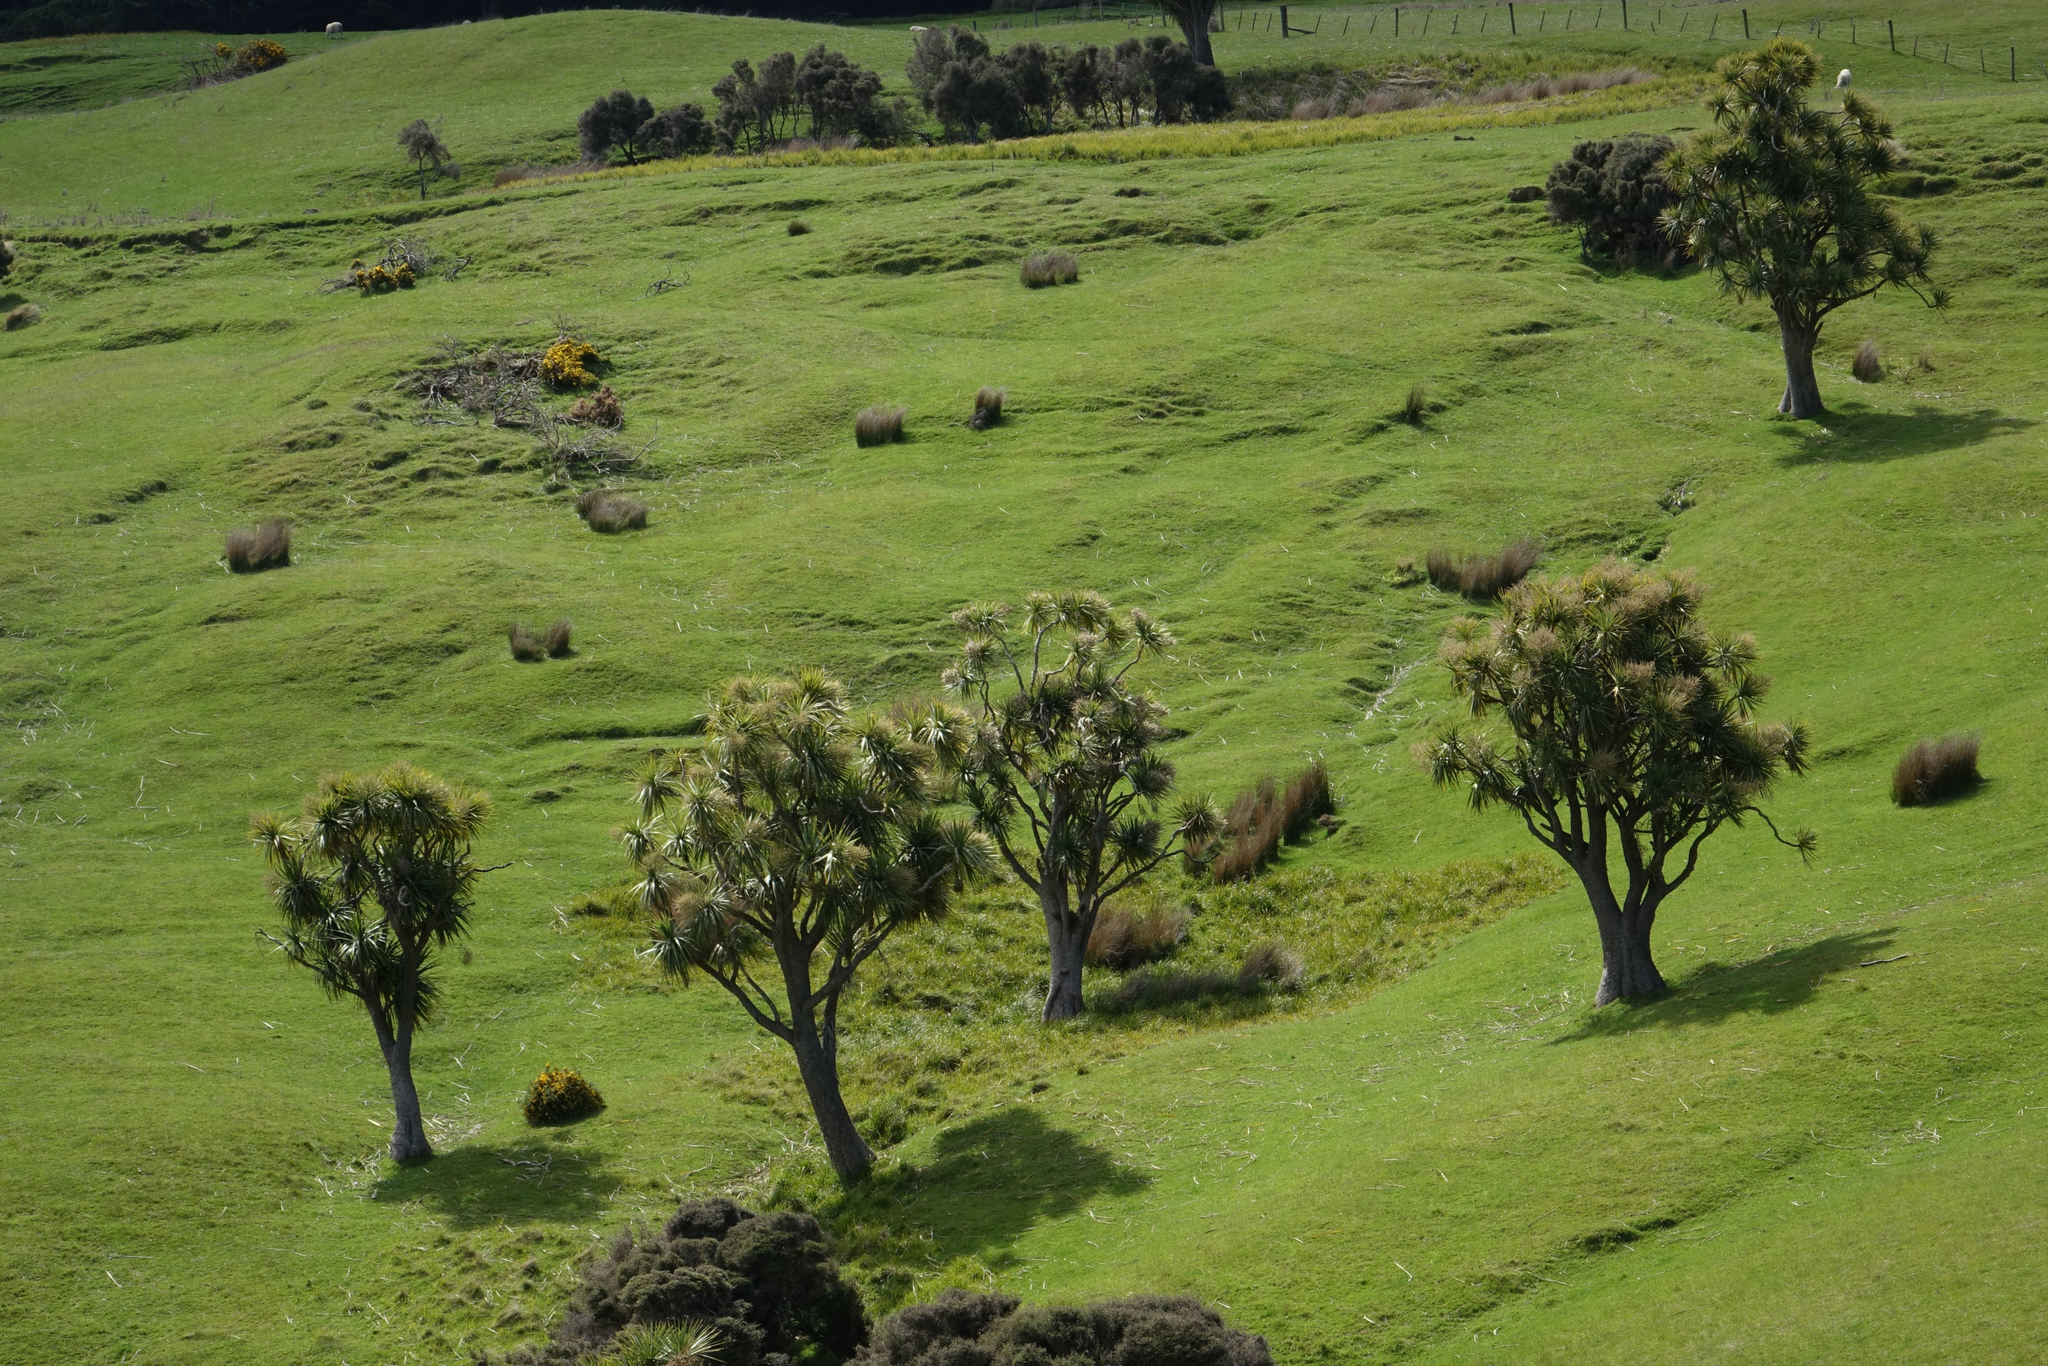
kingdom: Plantae
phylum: Tracheophyta
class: Liliopsida
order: Asparagales
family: Asparagaceae
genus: Cordyline
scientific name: Cordyline australis
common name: Cabbage-palm
